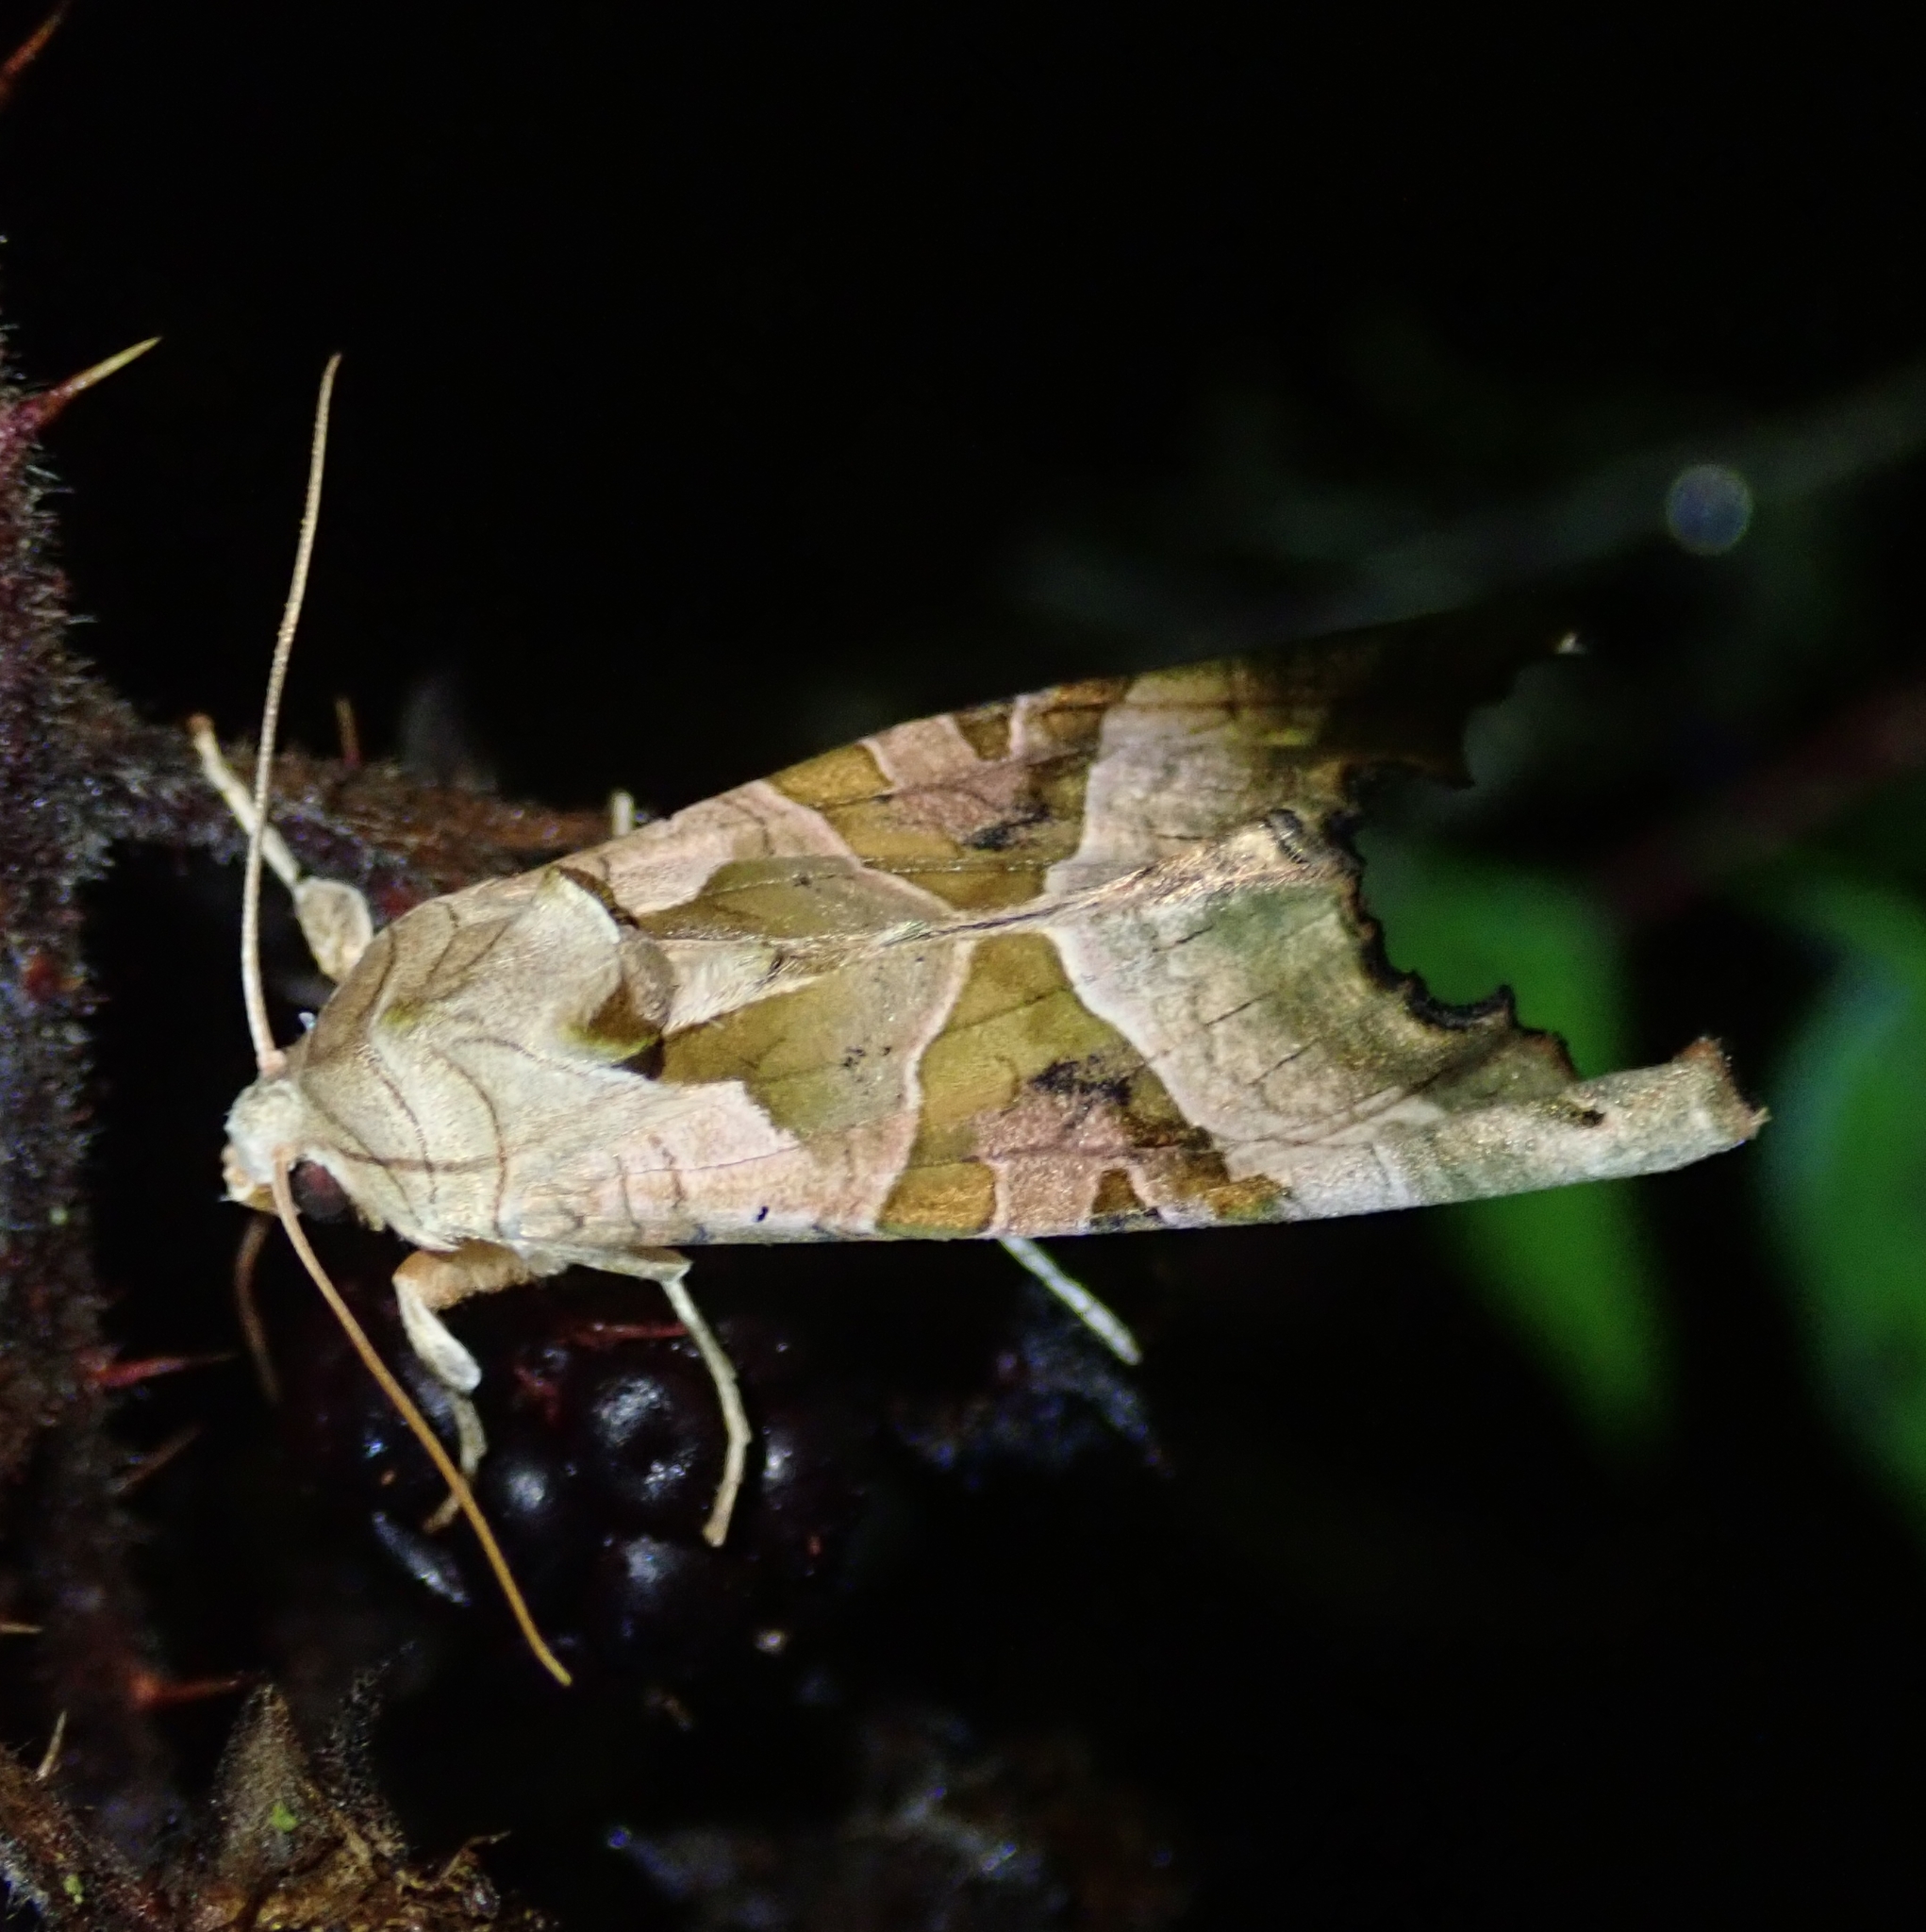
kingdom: Animalia
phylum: Arthropoda
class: Insecta
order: Lepidoptera
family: Noctuidae
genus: Phlogophora
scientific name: Phlogophora meticulosa
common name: Angle shades
